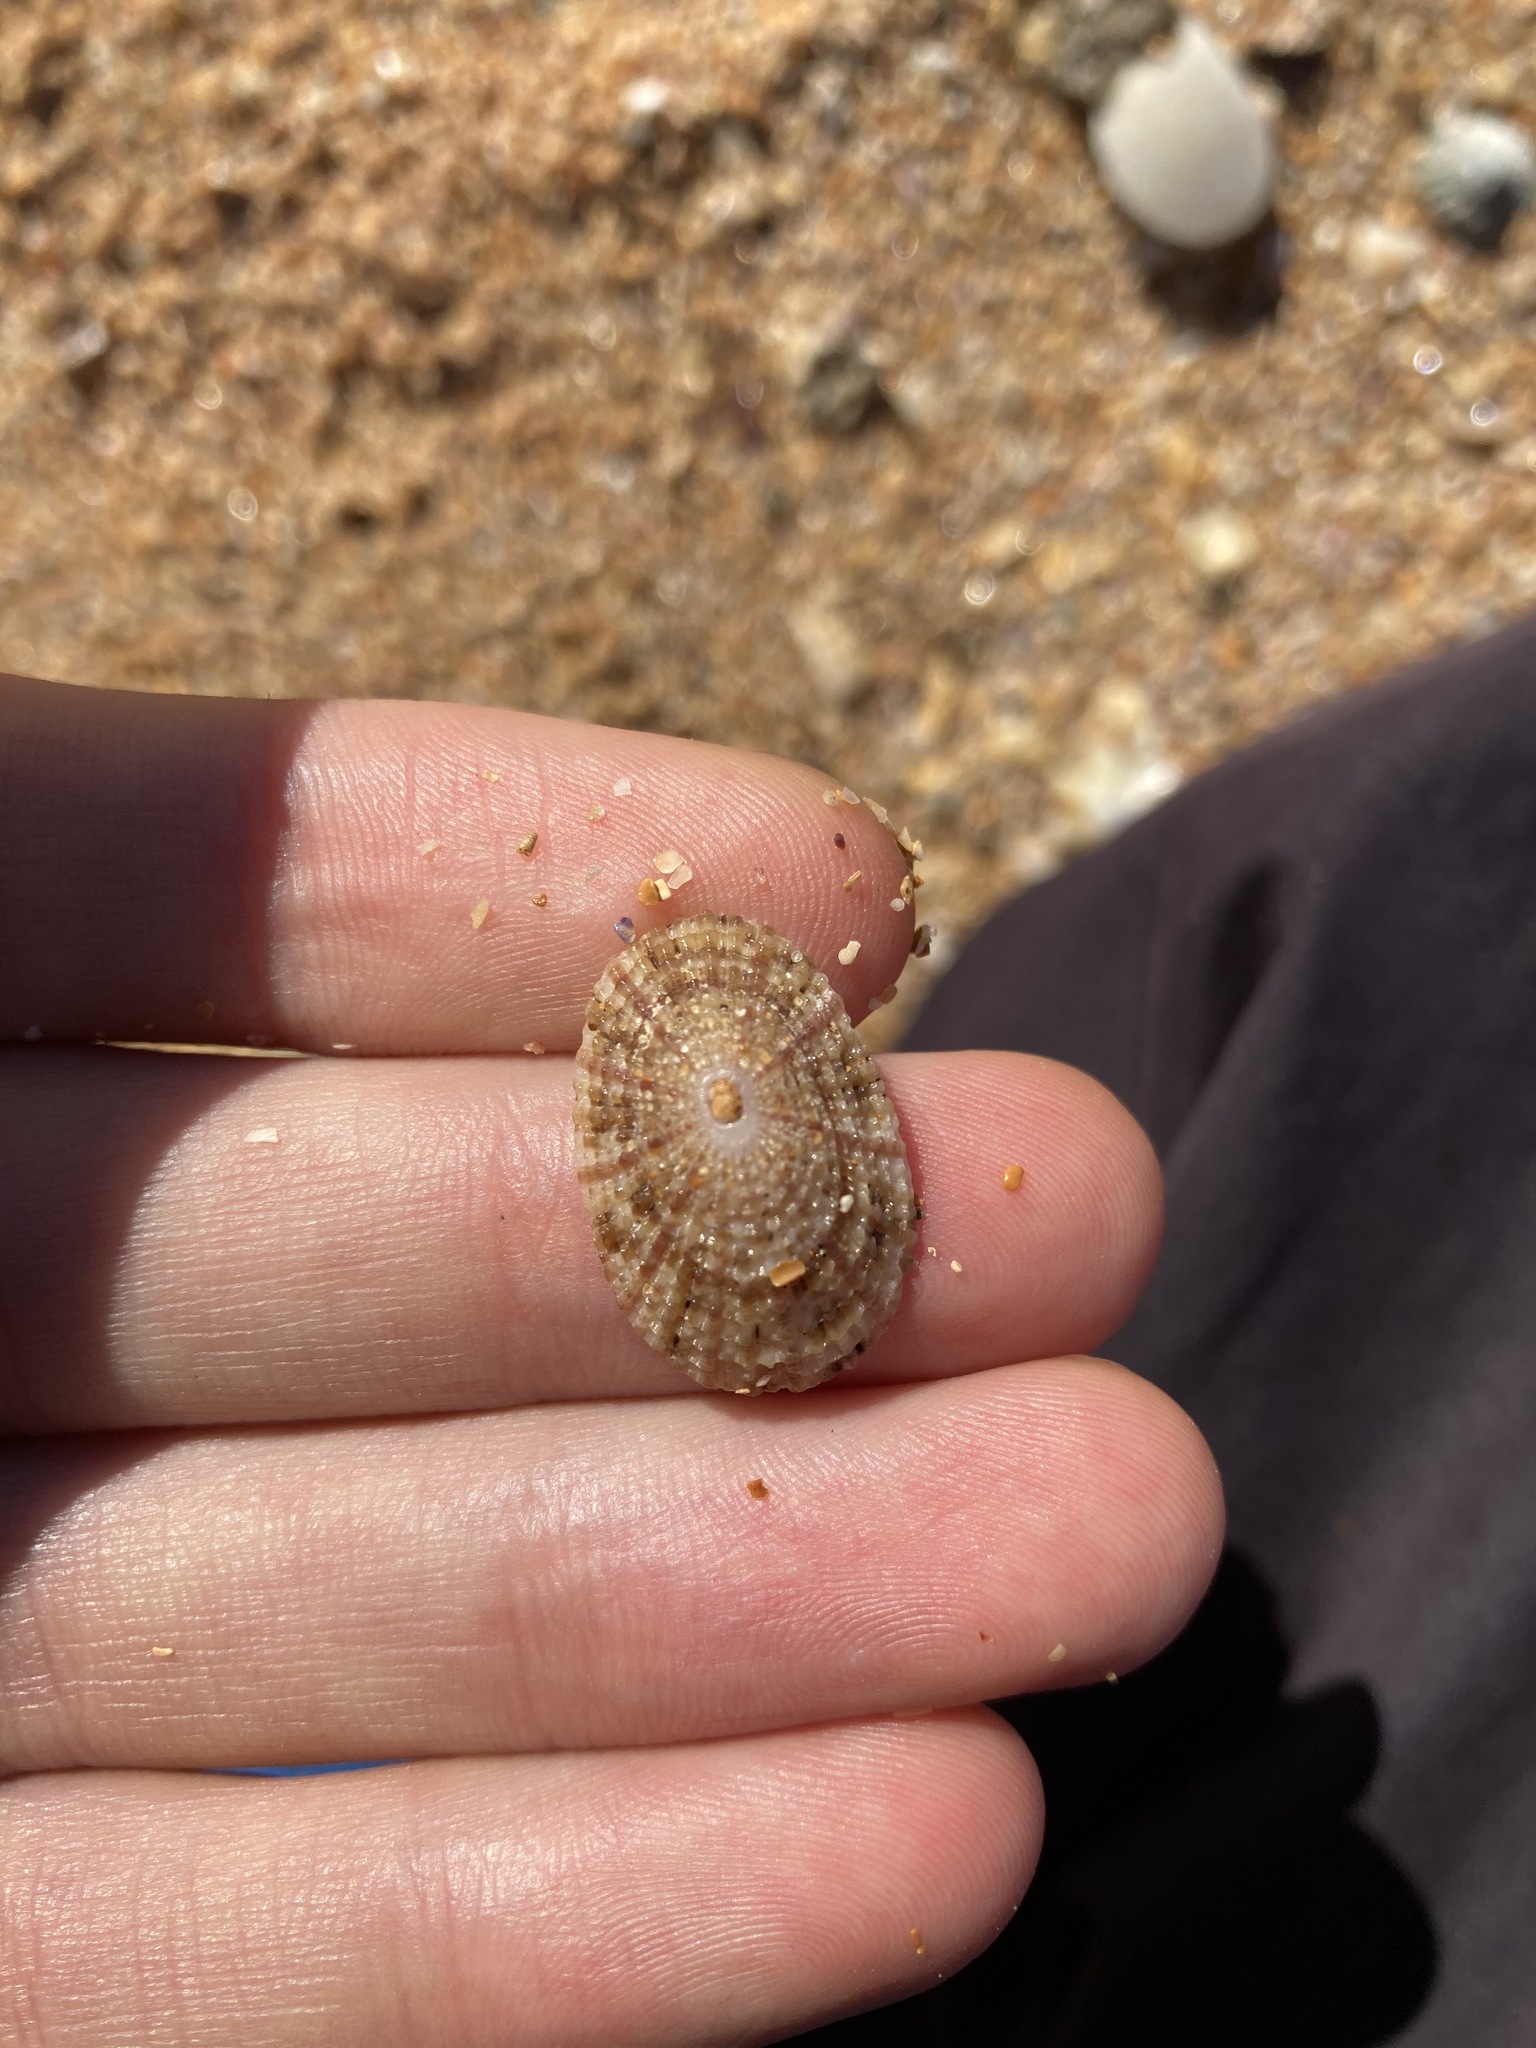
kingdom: Animalia
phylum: Mollusca
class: Gastropoda
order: Lepetellida
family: Fissurellidae
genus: Diodora
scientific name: Diodora lineata
